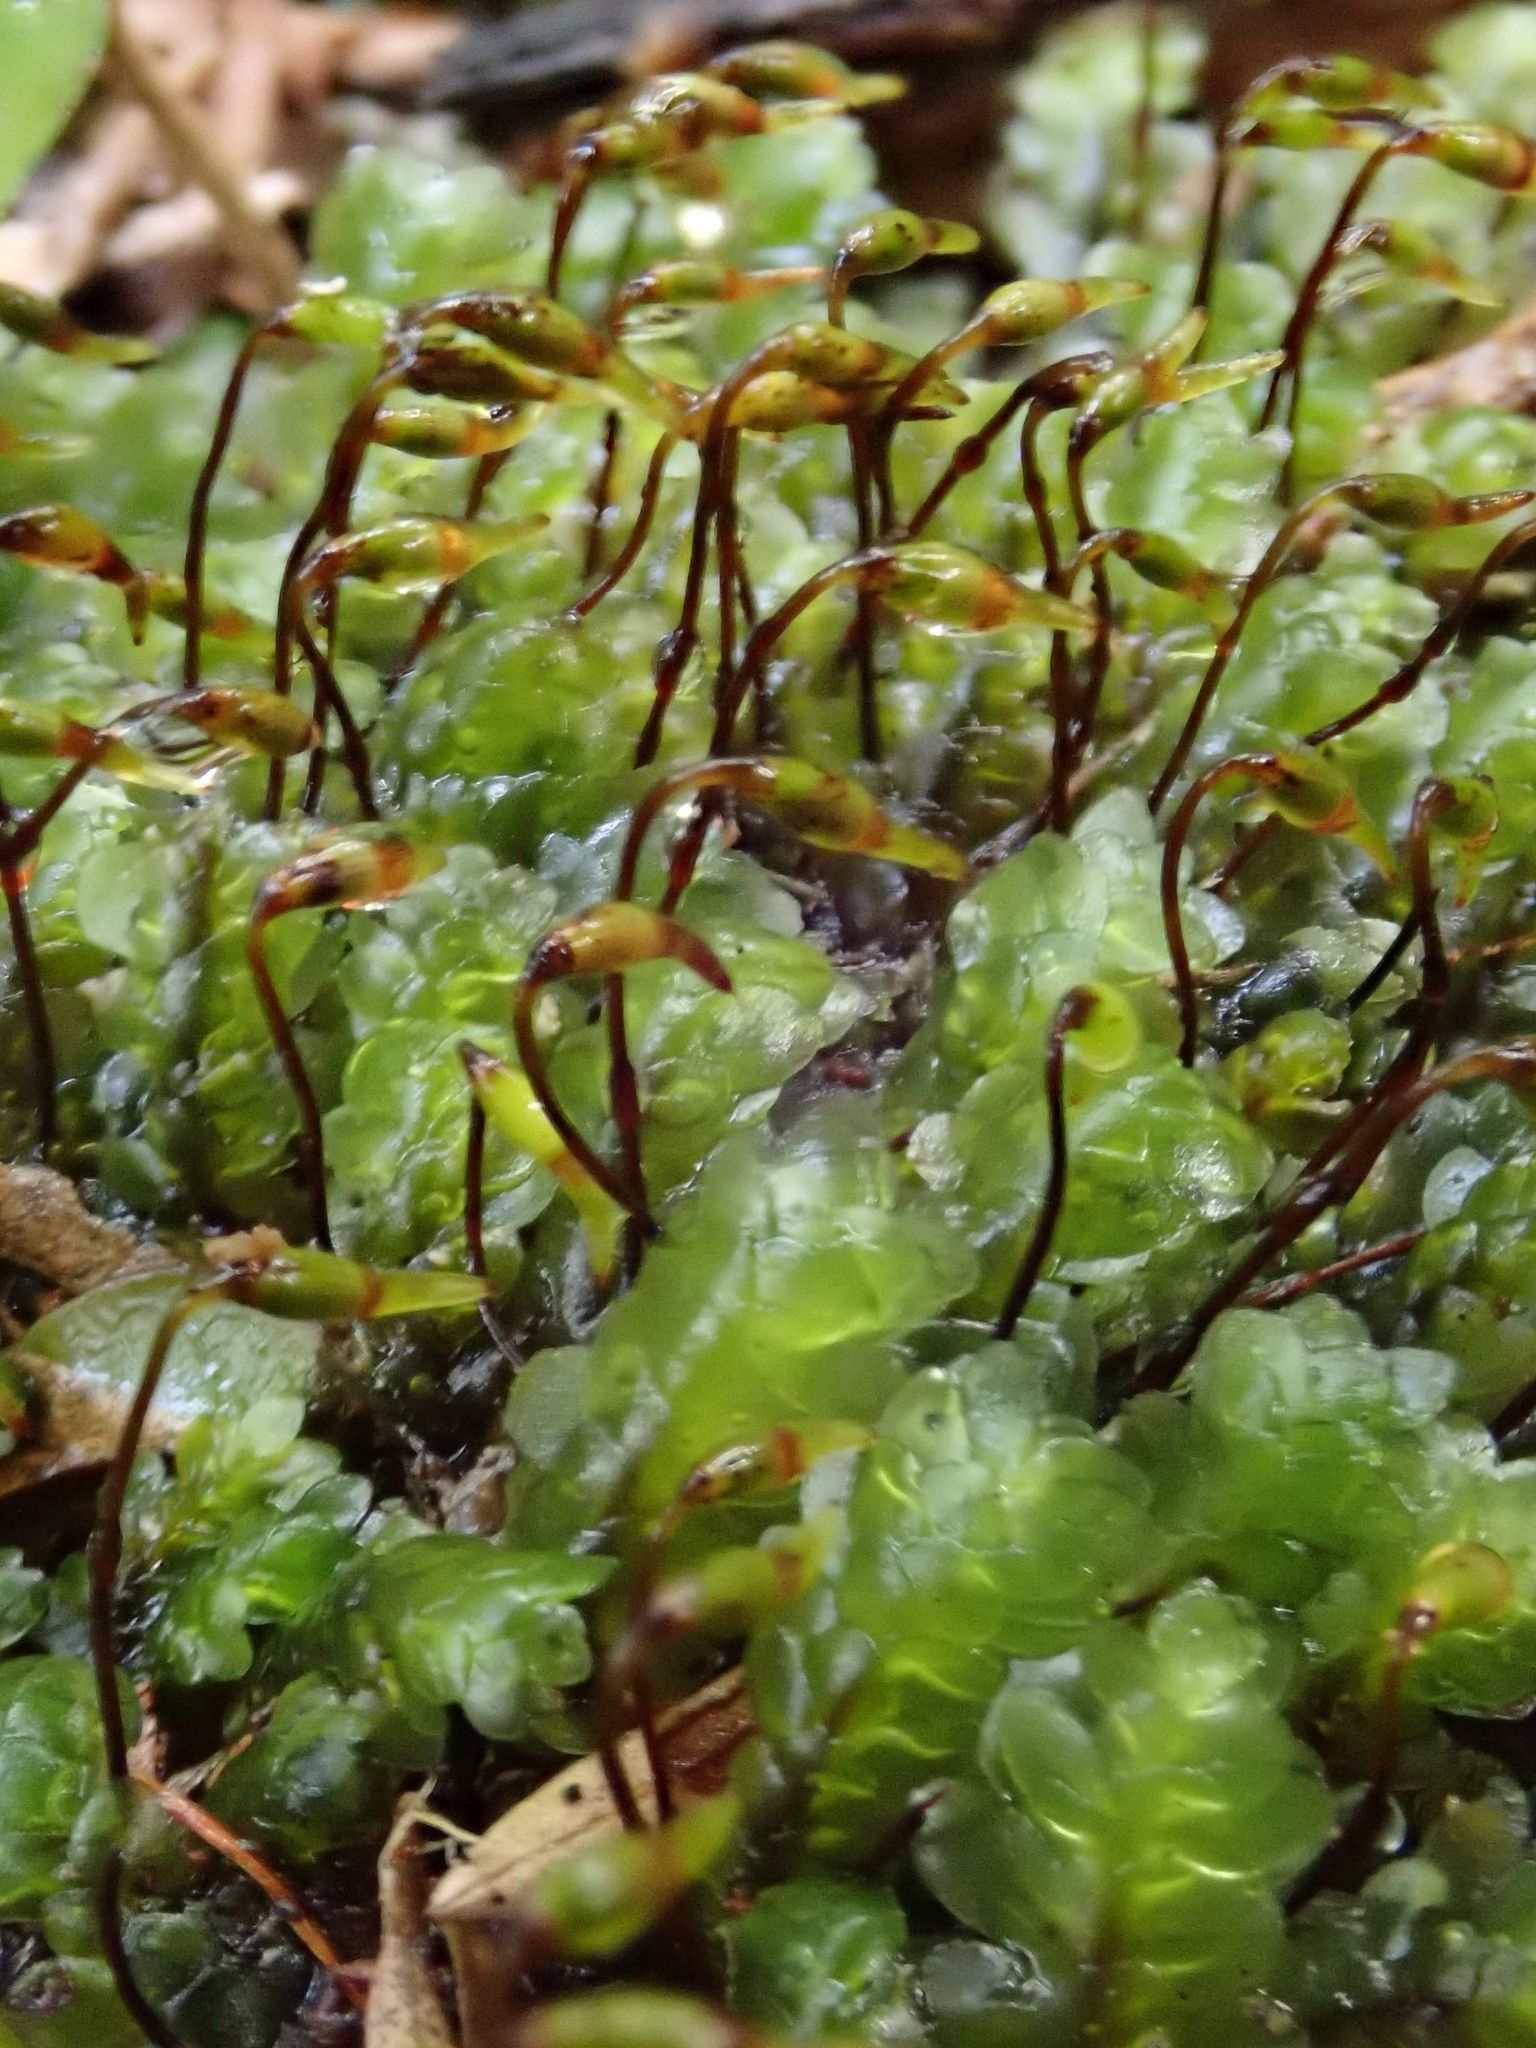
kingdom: Plantae
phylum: Bryophyta
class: Bryopsida
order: Hookeriales
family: Daltoniaceae
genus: Achrophyllum
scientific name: Achrophyllum dentatum
